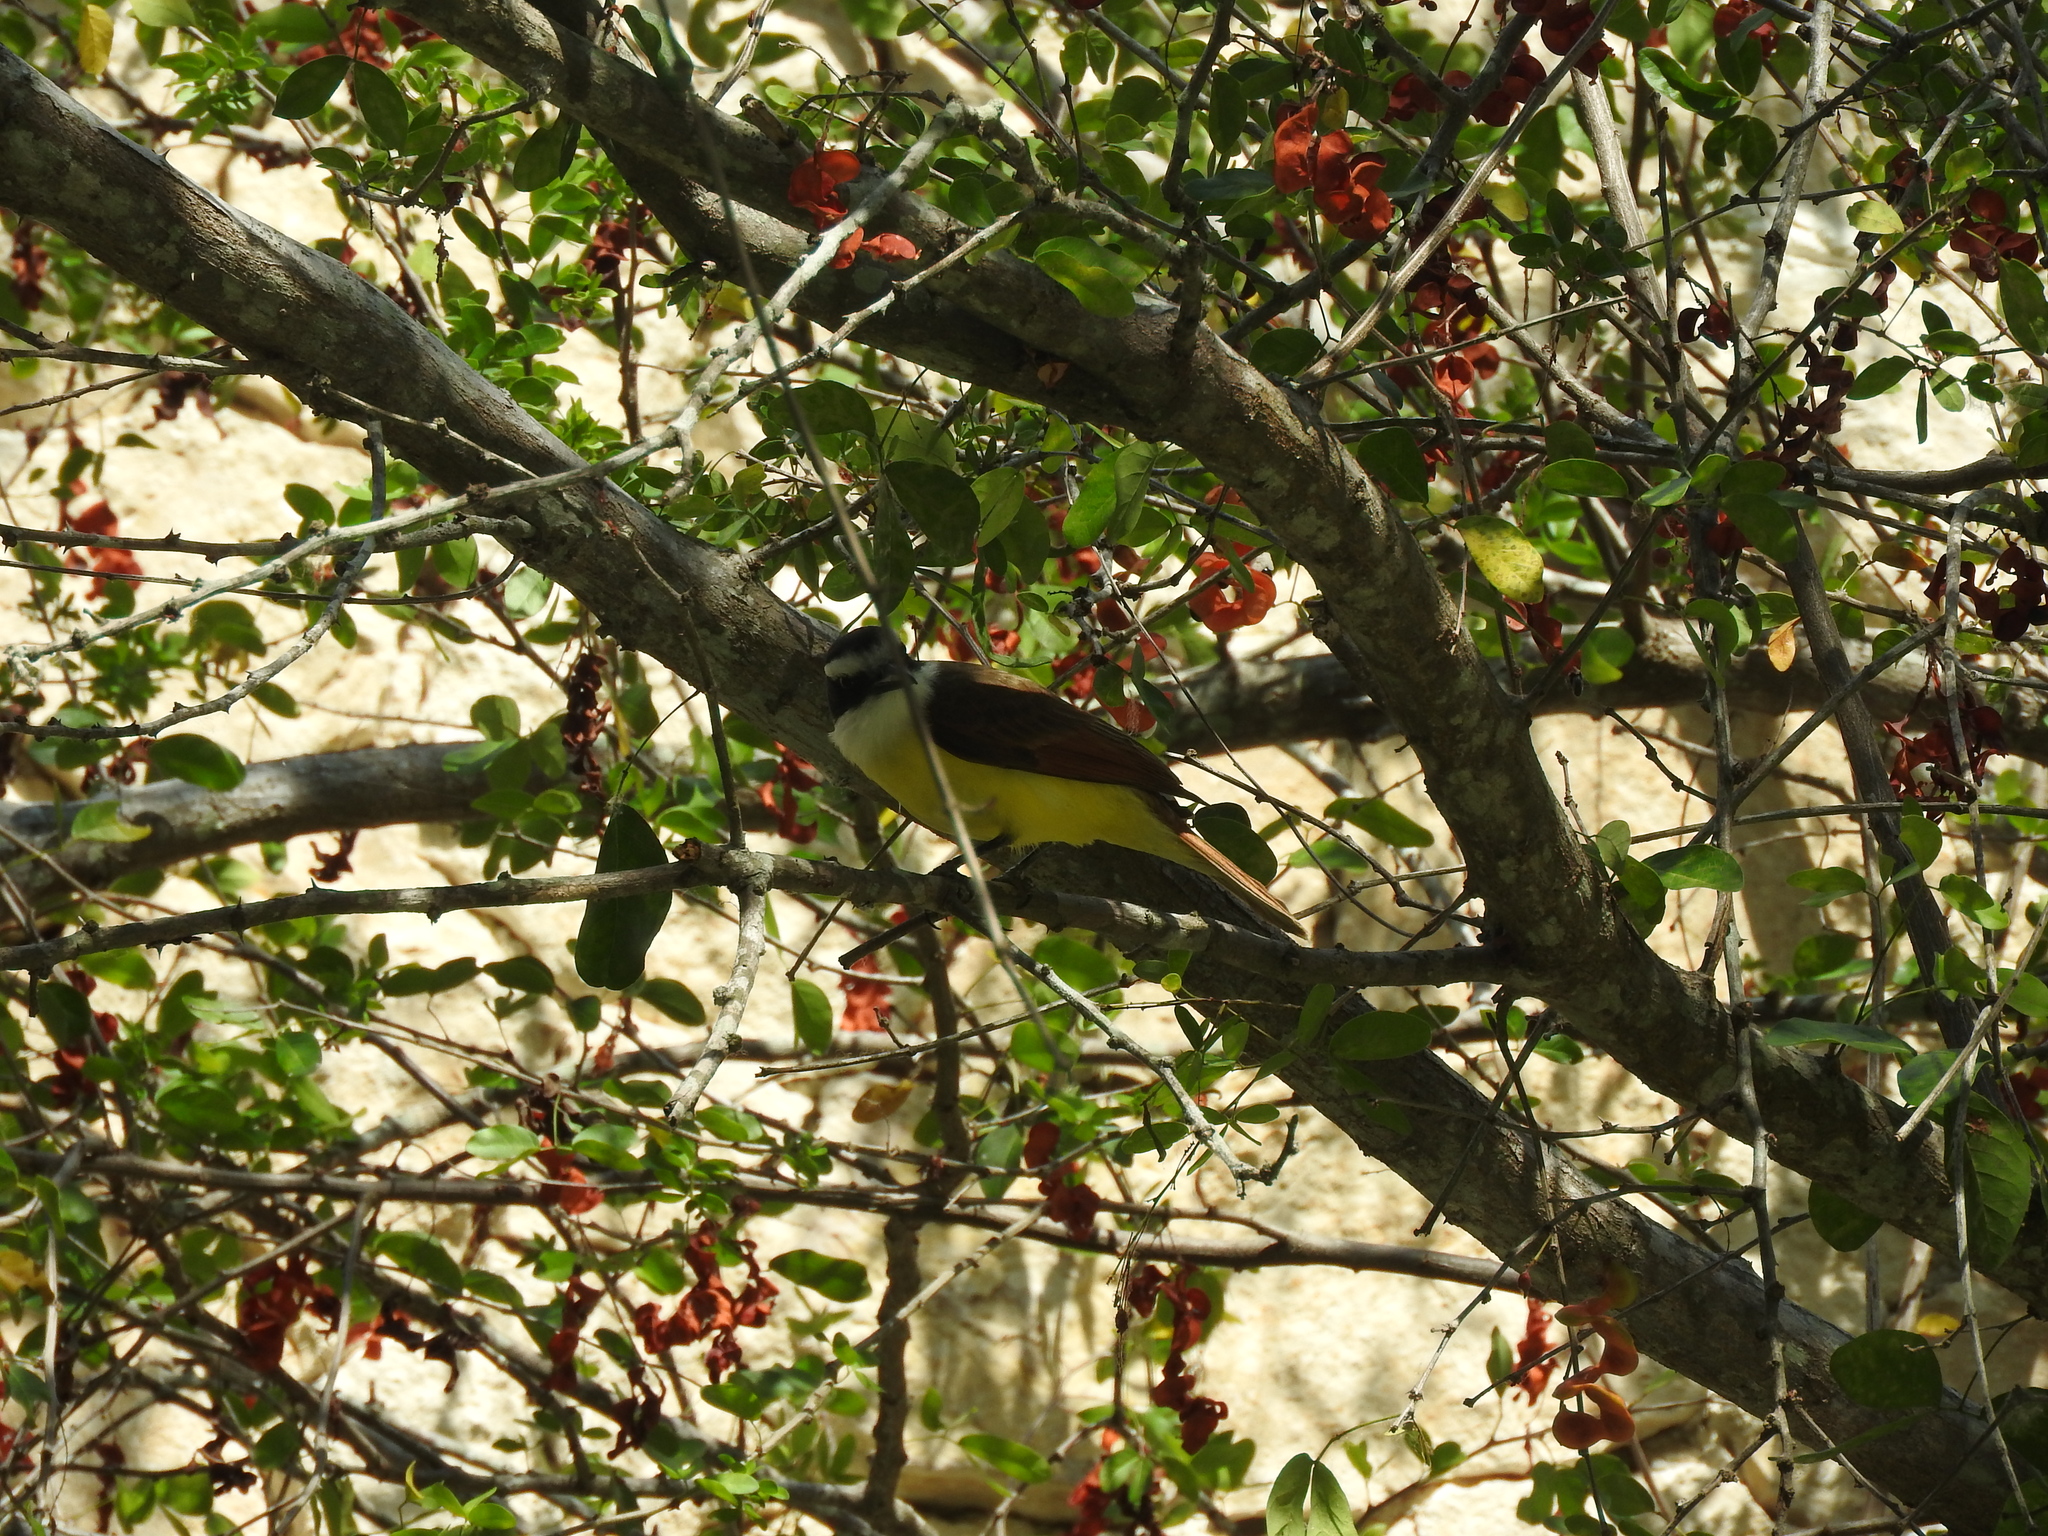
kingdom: Animalia
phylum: Chordata
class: Aves
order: Passeriformes
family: Tyrannidae
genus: Pitangus
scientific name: Pitangus sulphuratus
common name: Great kiskadee
